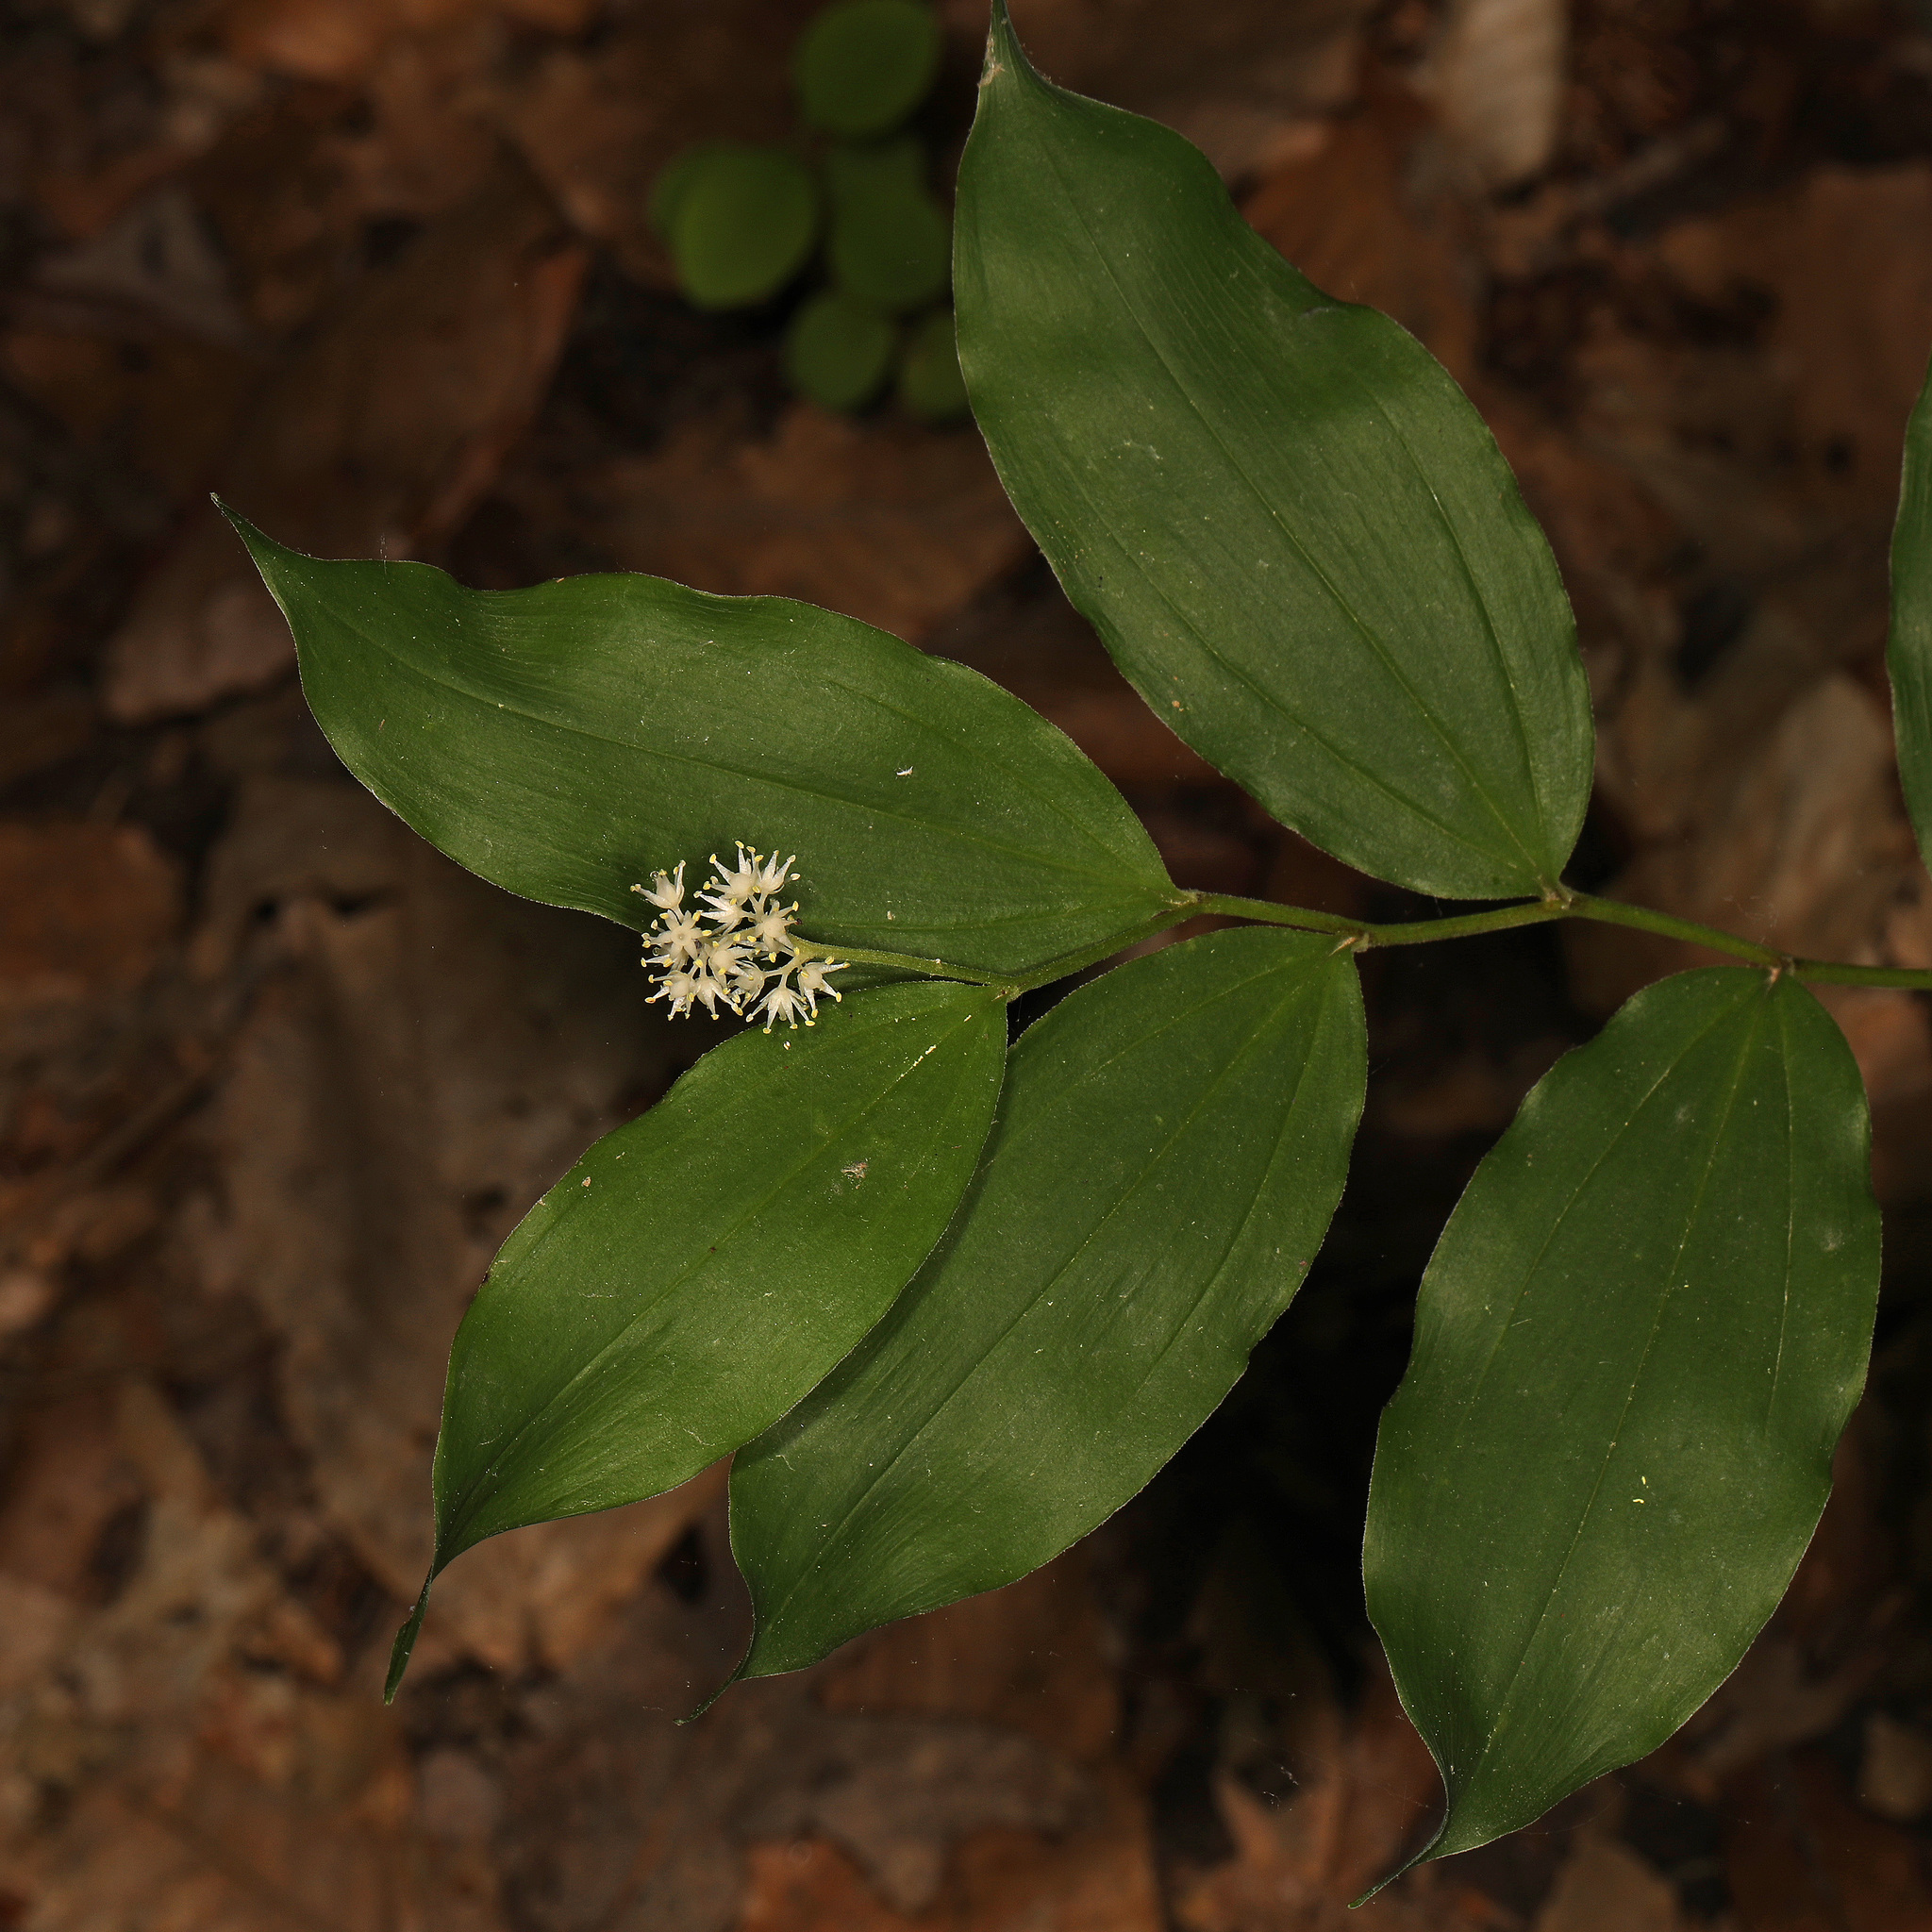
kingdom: Plantae
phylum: Tracheophyta
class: Liliopsida
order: Asparagales
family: Asparagaceae
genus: Maianthemum
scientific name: Maianthemum racemosum
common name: False spikenard
